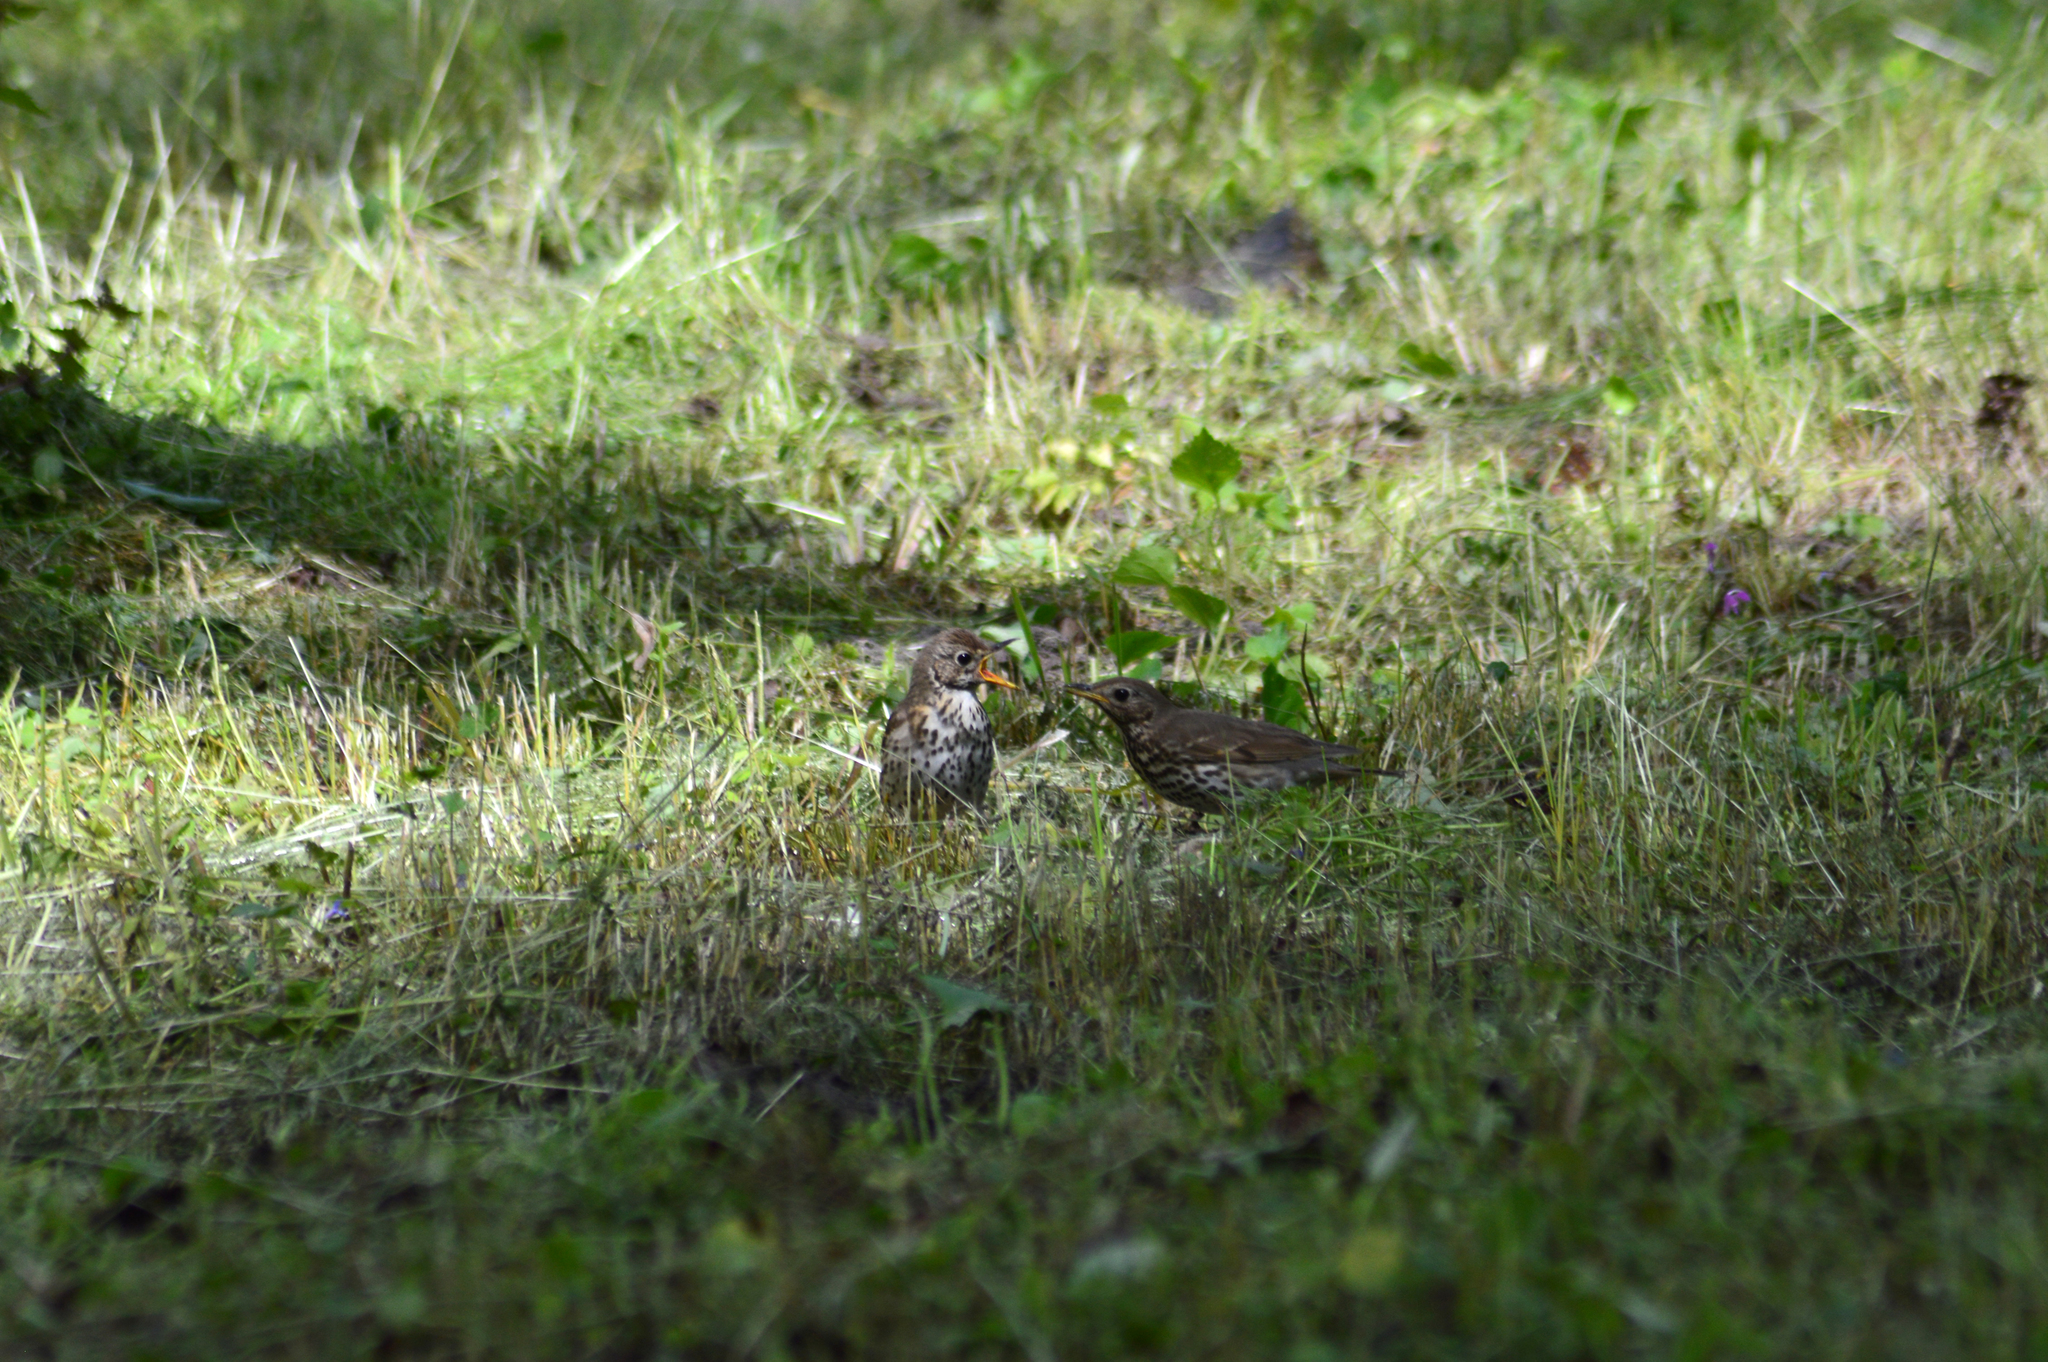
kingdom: Animalia
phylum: Chordata
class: Aves
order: Passeriformes
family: Turdidae
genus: Turdus
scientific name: Turdus philomelos
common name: Song thrush
